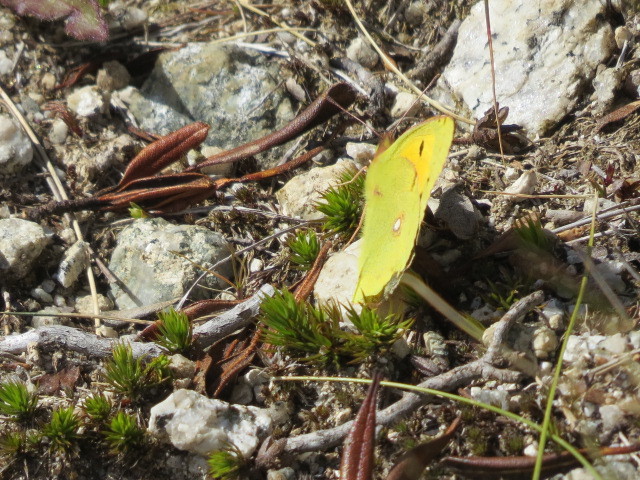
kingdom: Animalia
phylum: Arthropoda
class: Insecta
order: Lepidoptera
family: Pieridae
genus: Colias
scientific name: Colias croceus
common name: Clouded yellow
